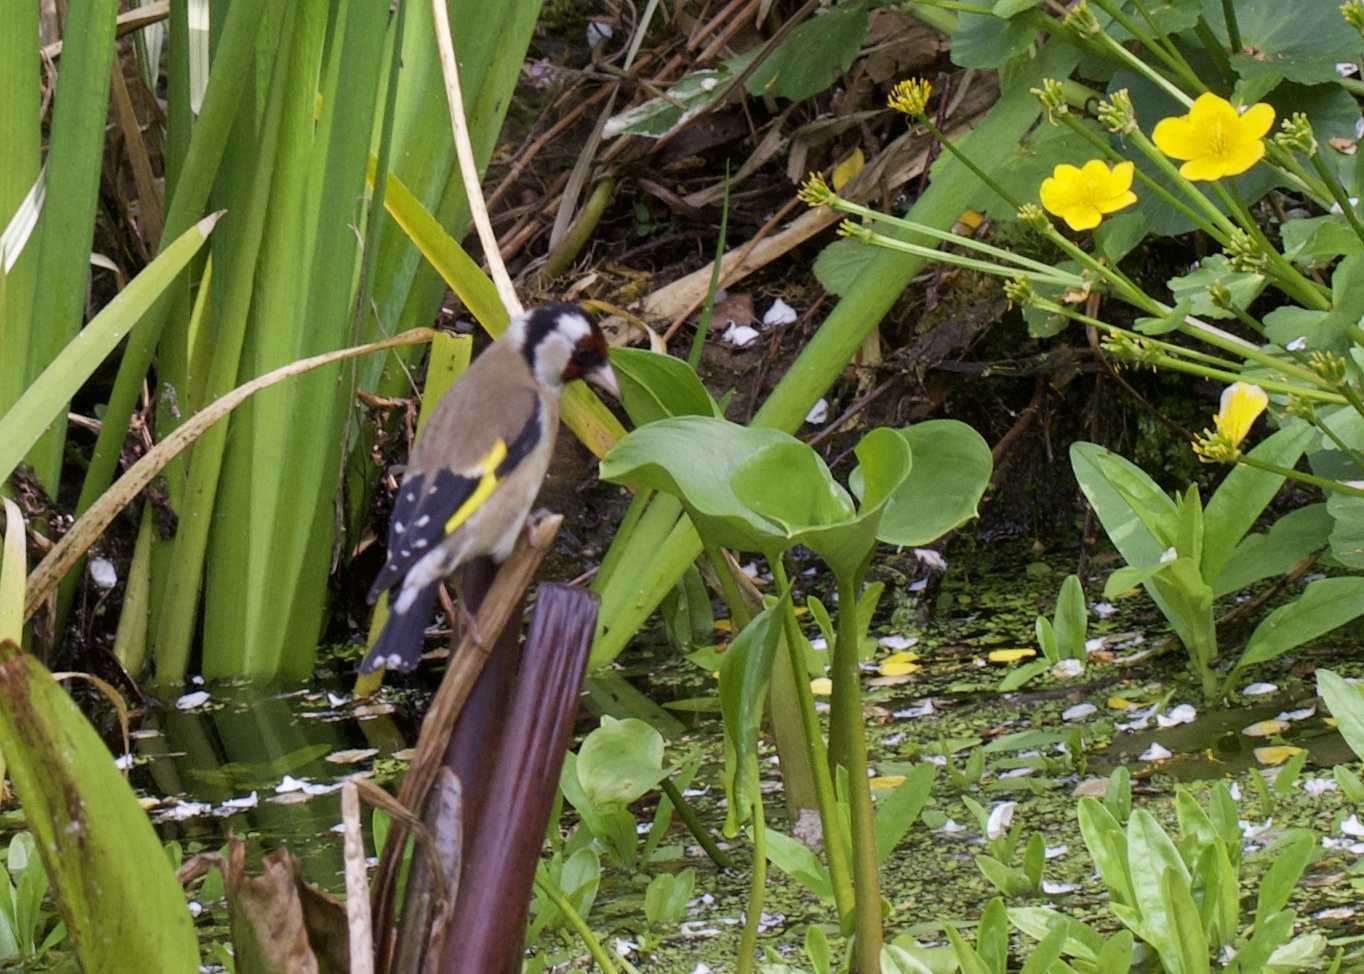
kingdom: Animalia
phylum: Chordata
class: Aves
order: Passeriformes
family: Fringillidae
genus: Carduelis
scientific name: Carduelis carduelis
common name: European goldfinch
